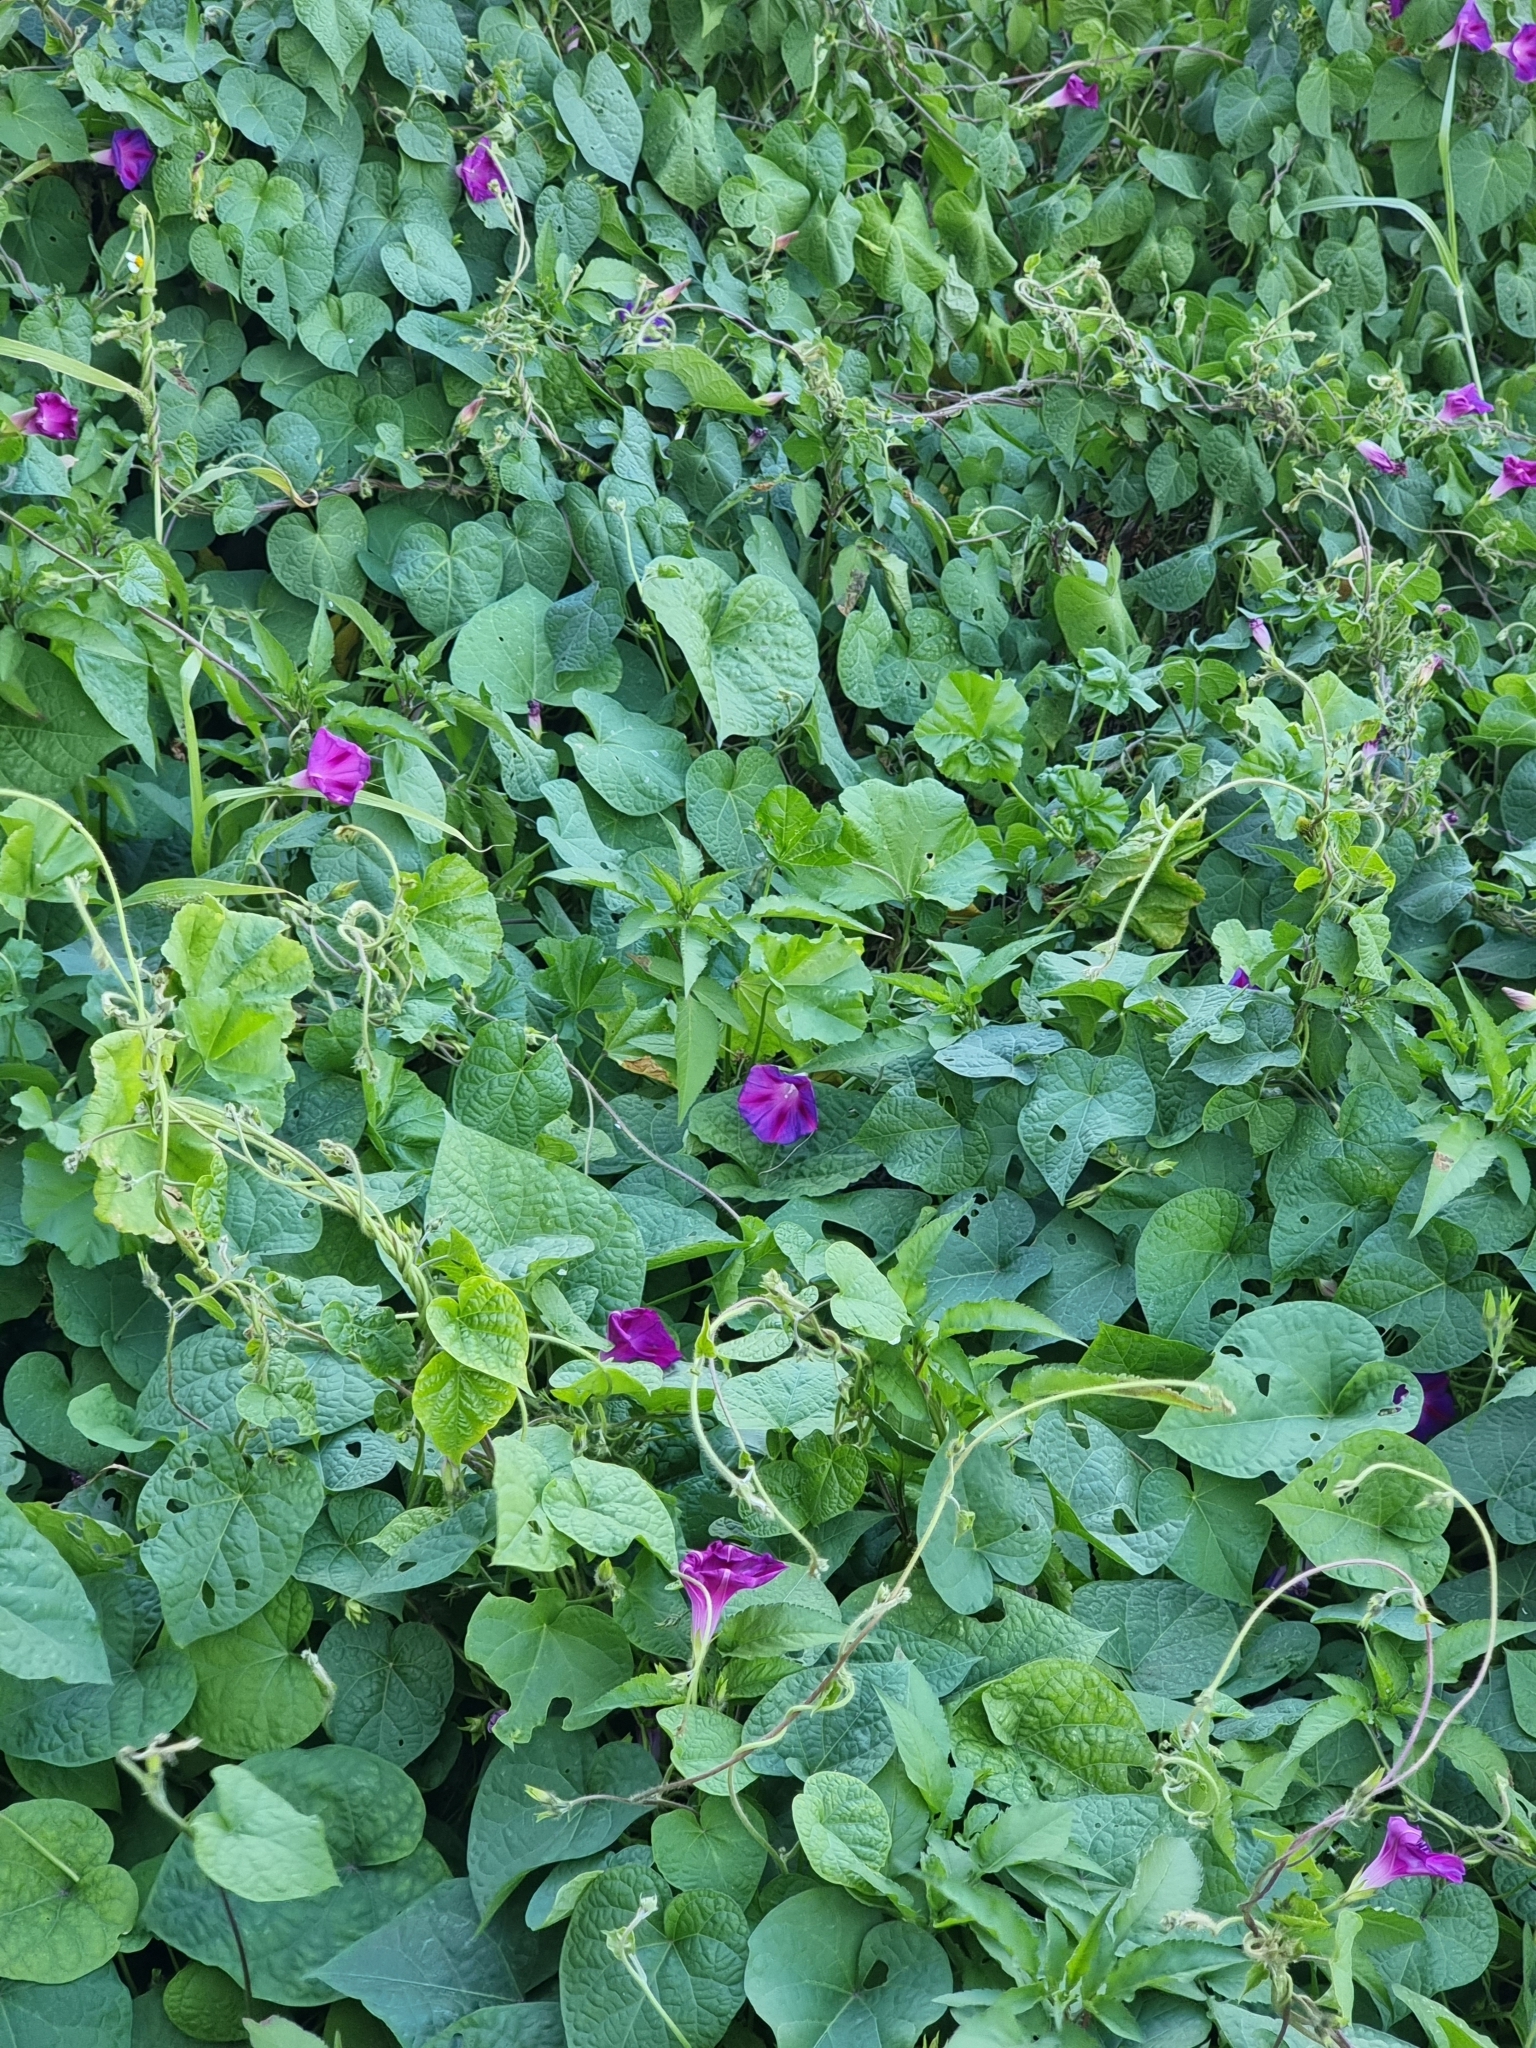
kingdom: Plantae
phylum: Tracheophyta
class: Magnoliopsida
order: Solanales
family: Convolvulaceae
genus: Ipomoea
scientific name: Ipomoea purpurea
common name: Common morning-glory
